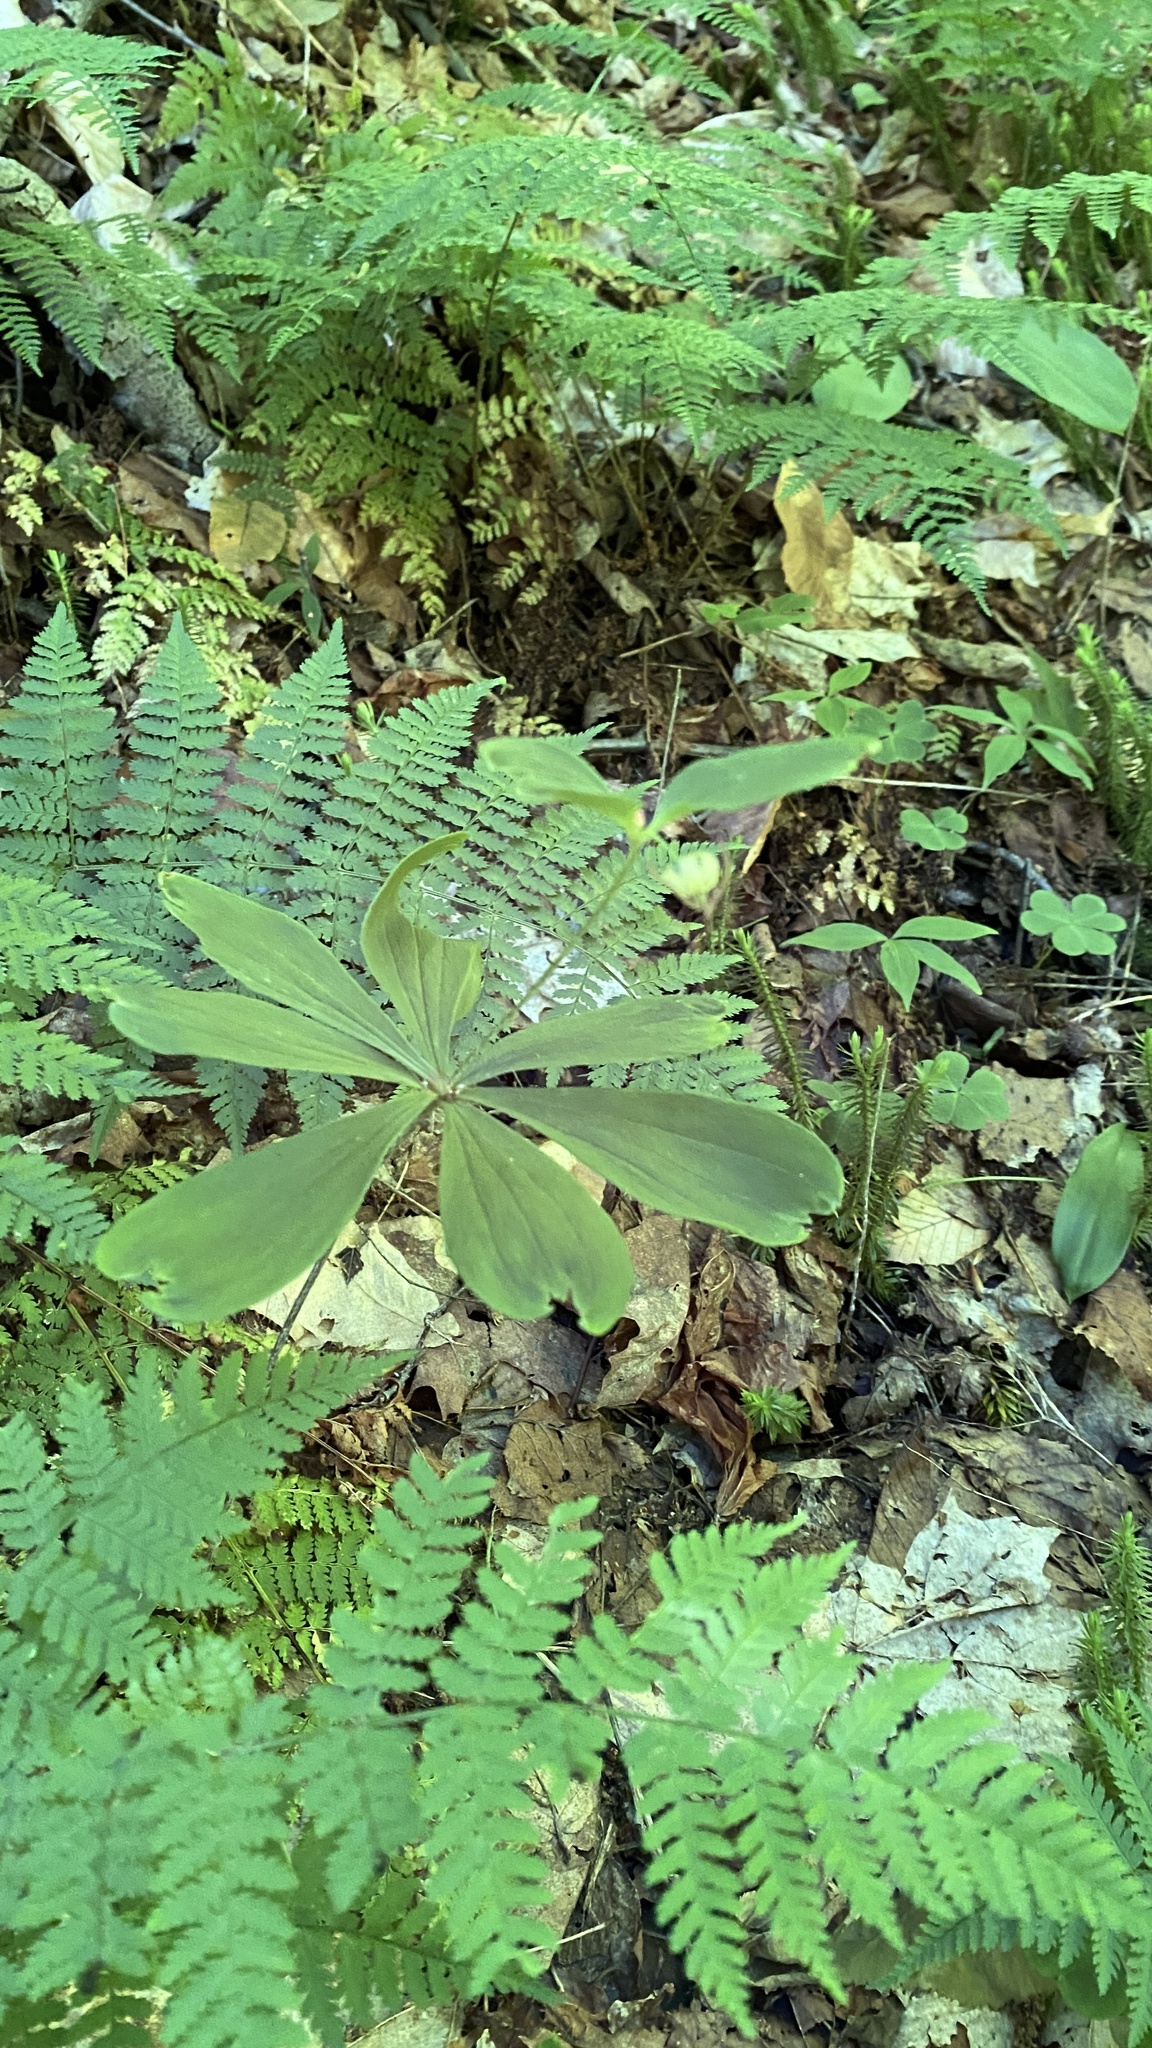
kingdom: Plantae
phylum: Tracheophyta
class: Liliopsida
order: Liliales
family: Liliaceae
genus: Medeola
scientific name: Medeola virginiana
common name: Indian cucumber-root
